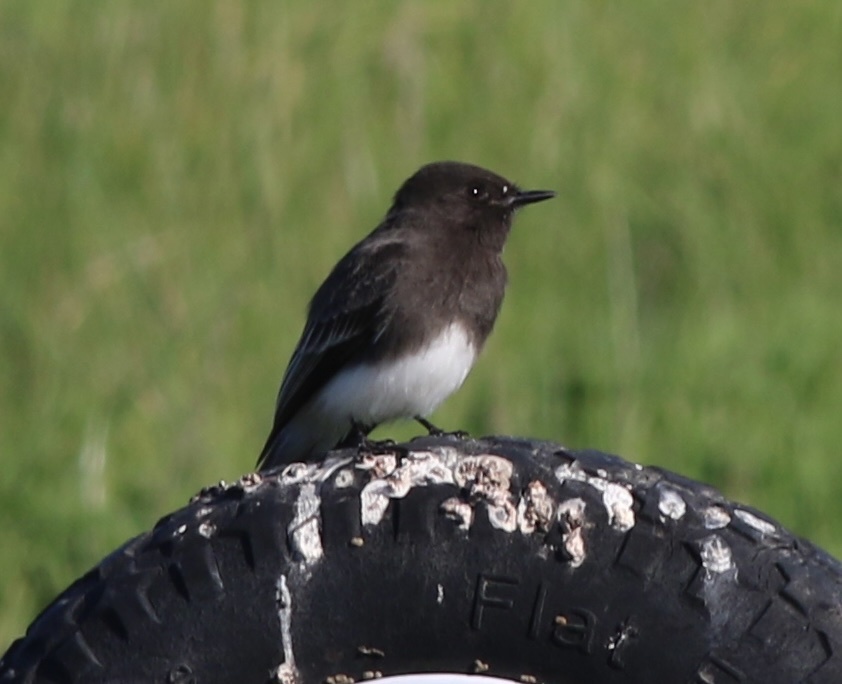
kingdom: Animalia
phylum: Chordata
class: Aves
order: Passeriformes
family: Tyrannidae
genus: Sayornis
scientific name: Sayornis nigricans
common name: Black phoebe
